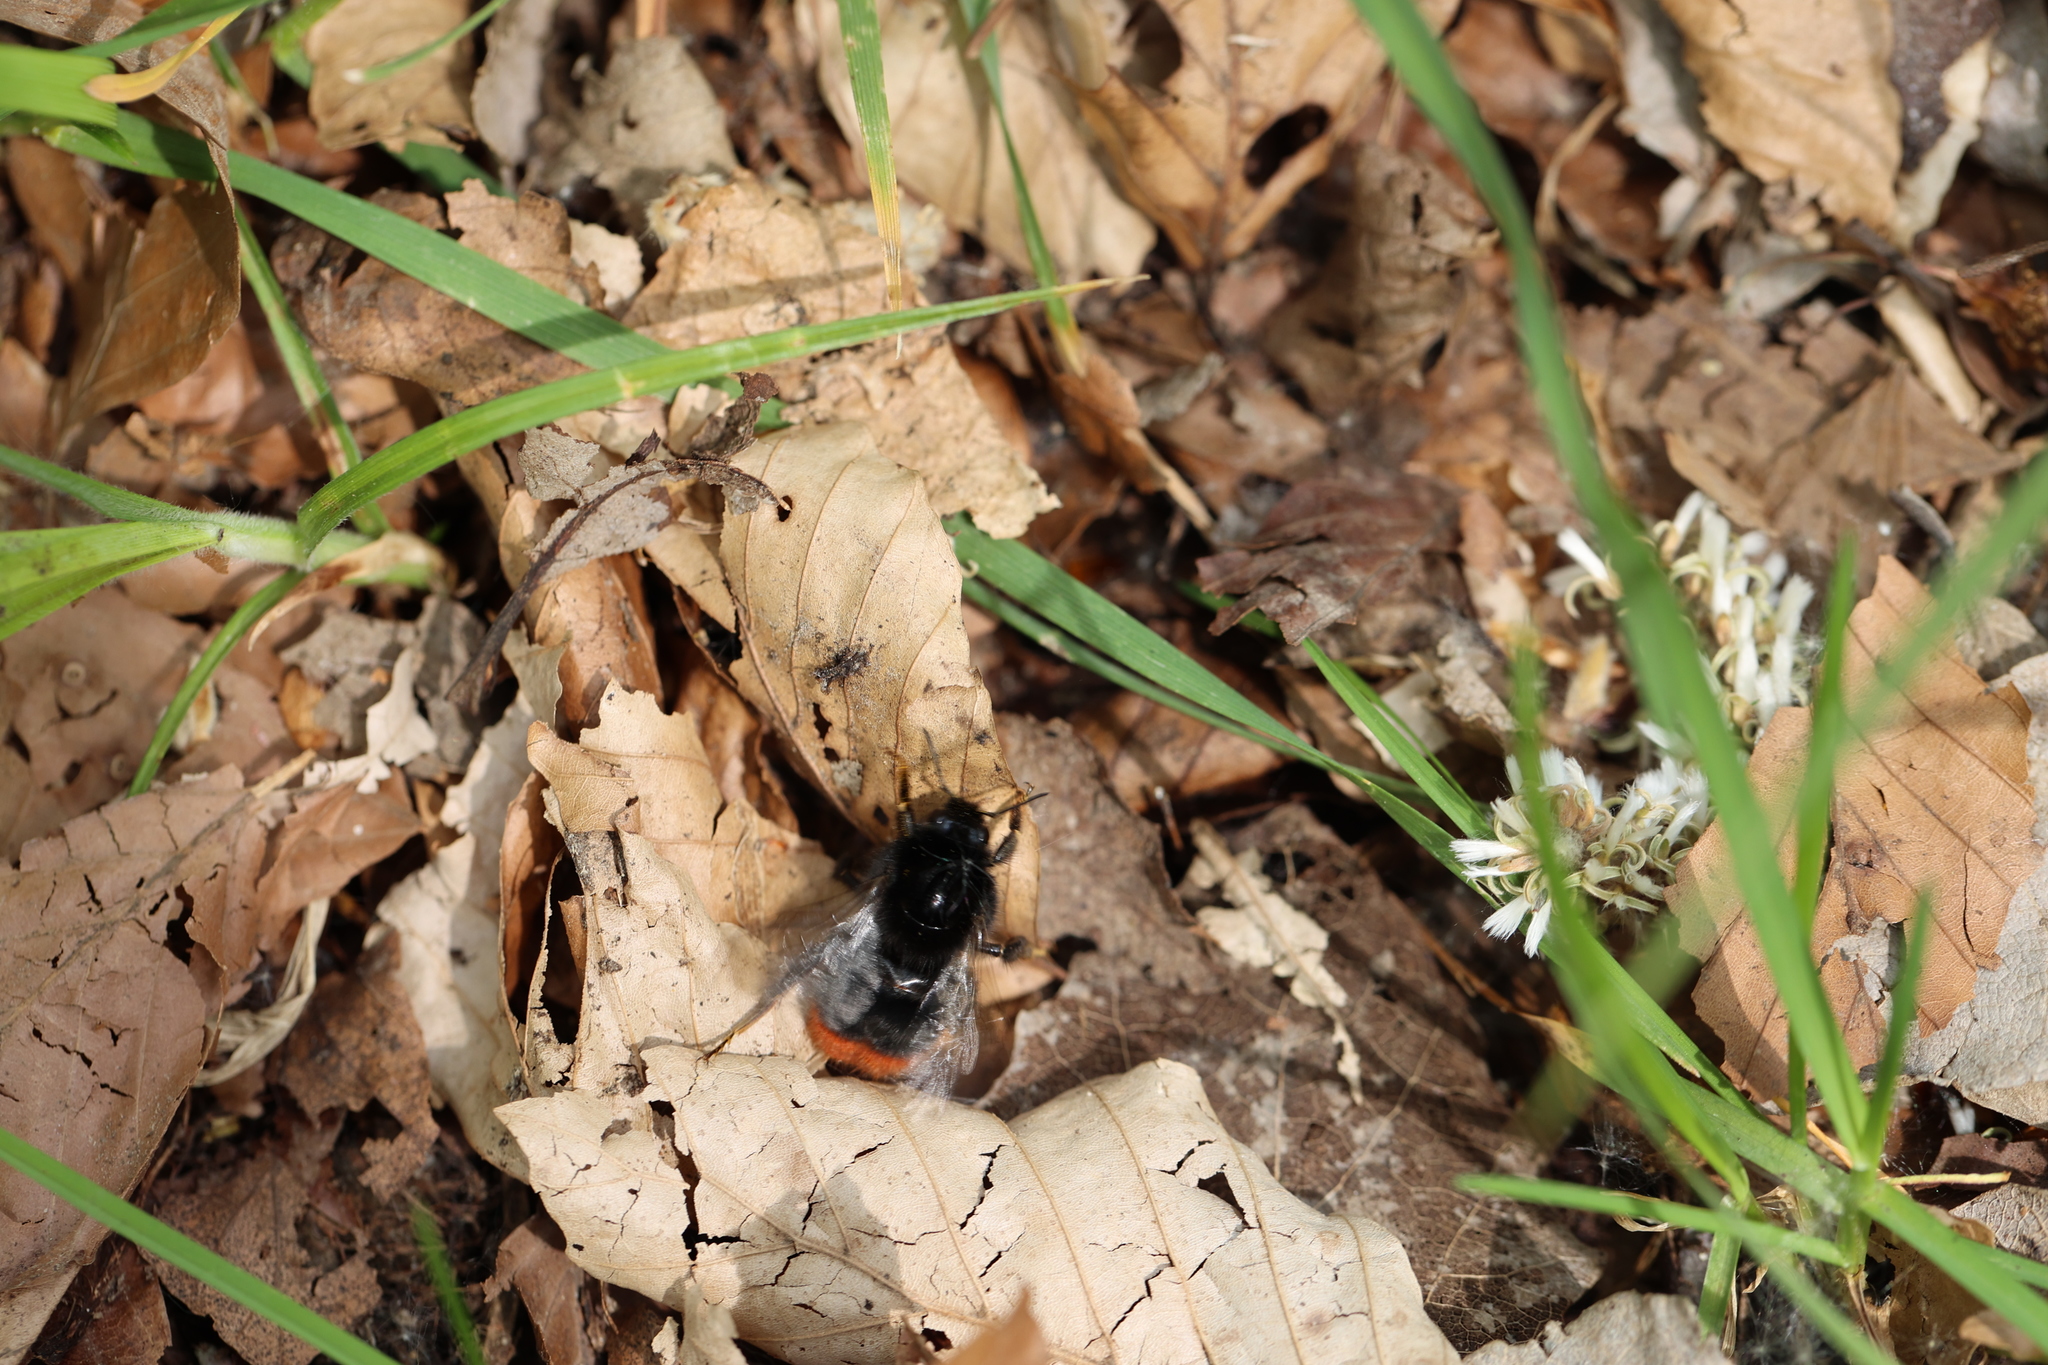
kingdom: Animalia
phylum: Arthropoda
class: Insecta
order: Hymenoptera
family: Apidae
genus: Bombus
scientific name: Bombus lapidarius
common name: Large red-tailed humble-bee
